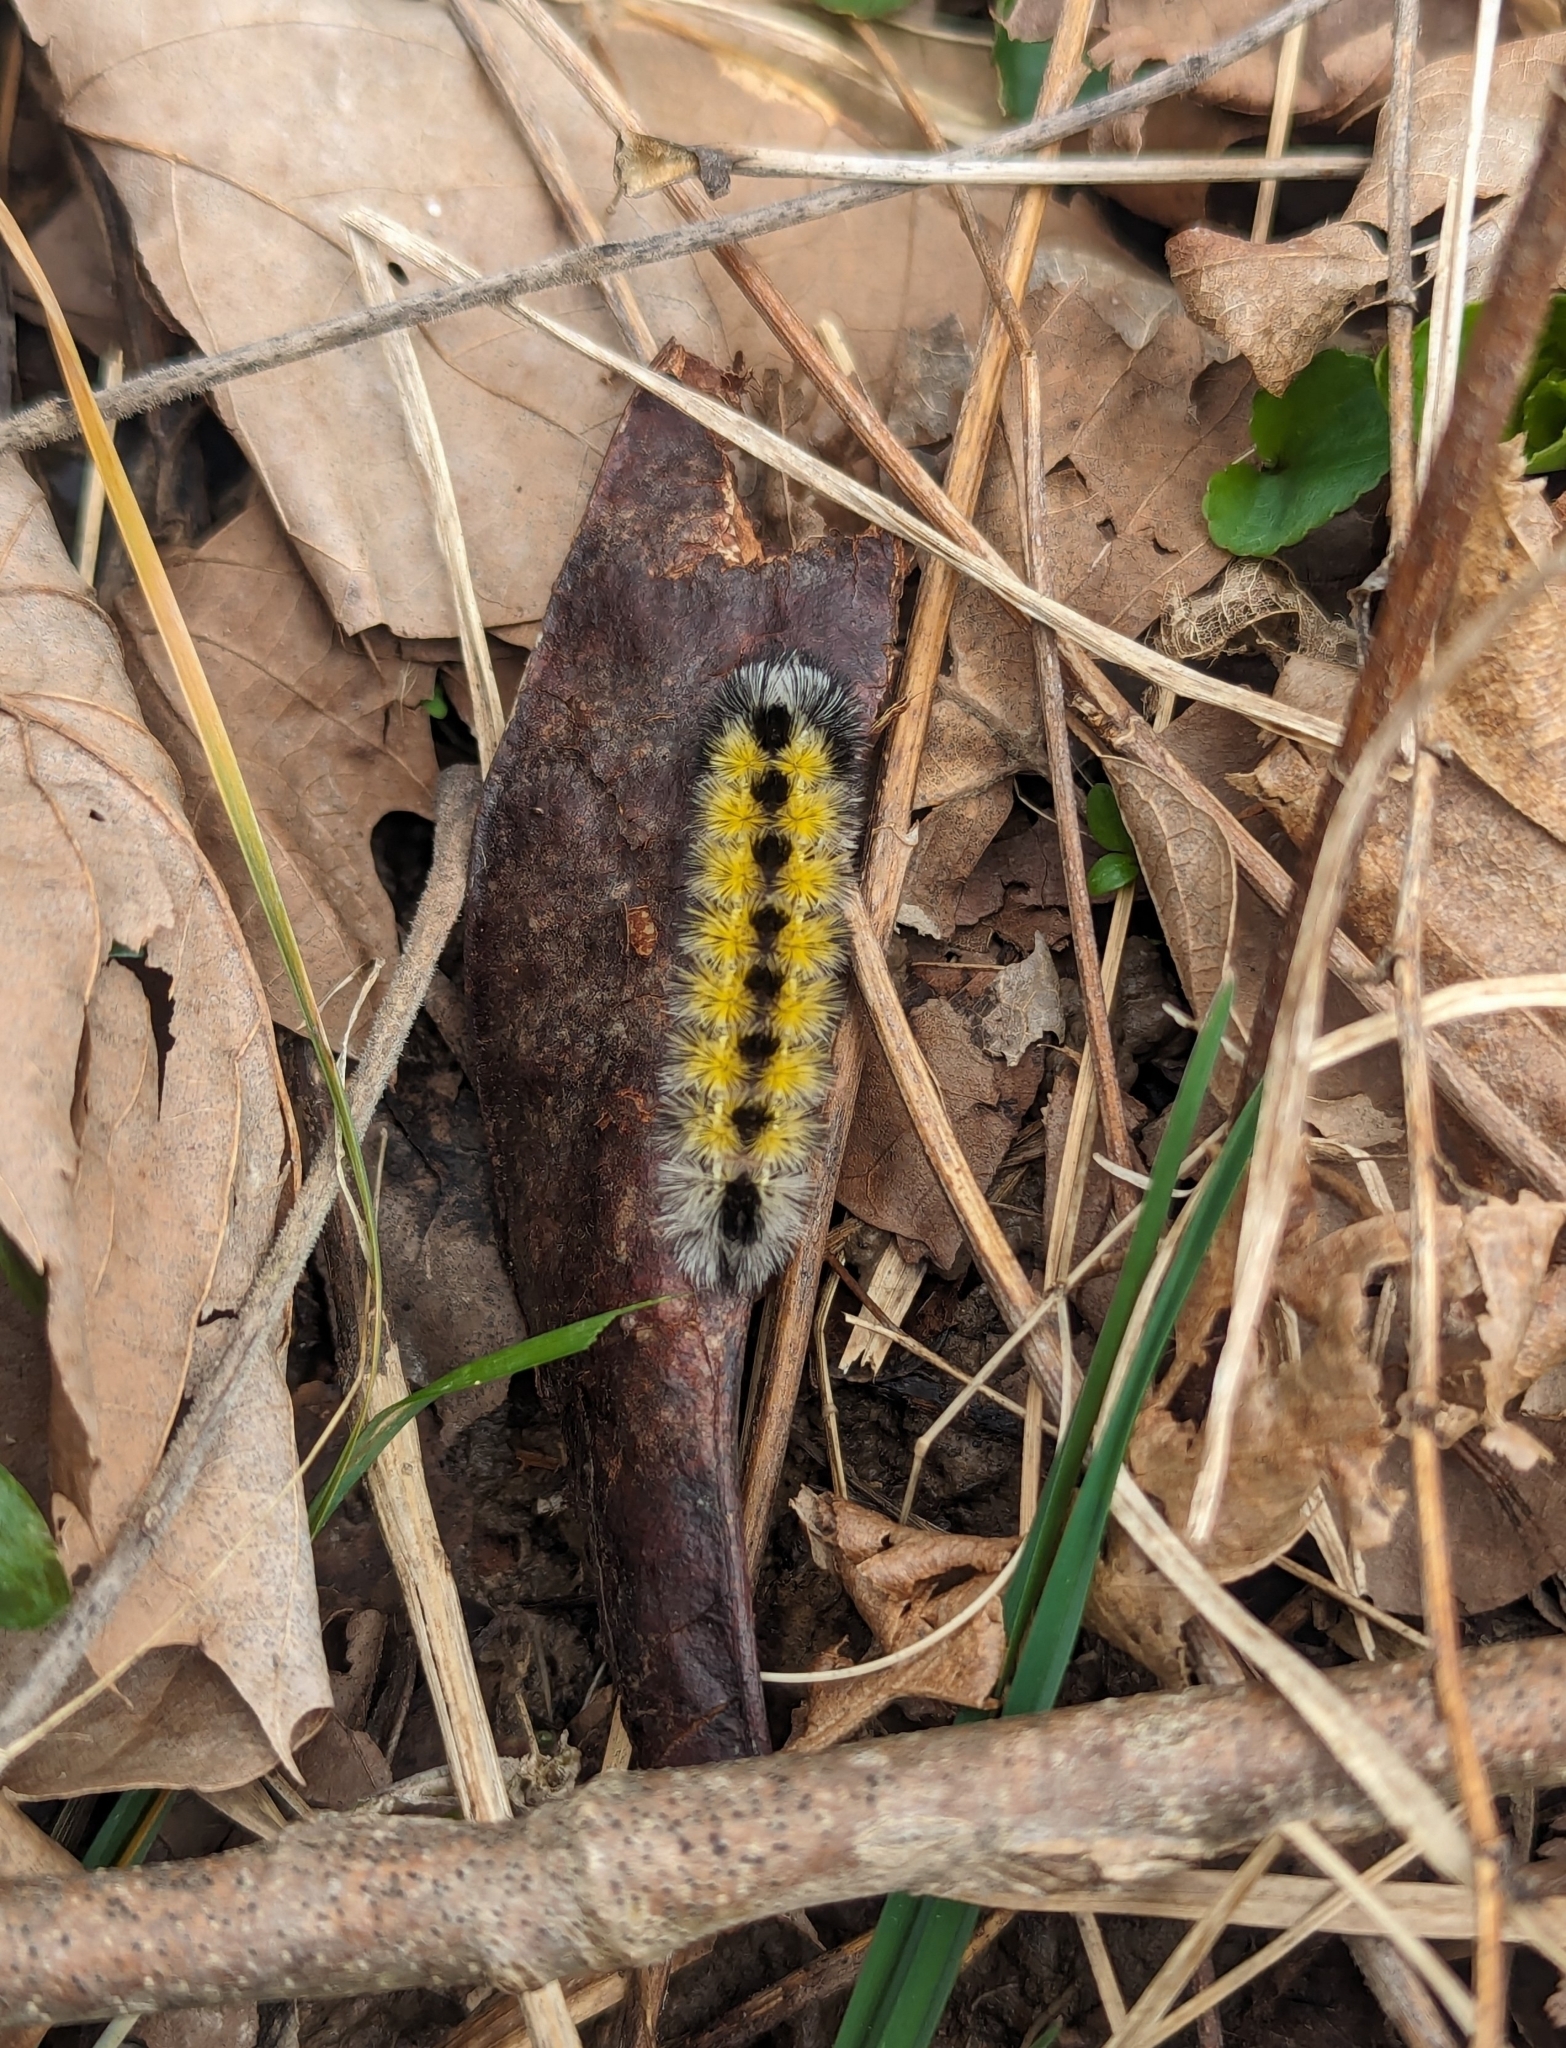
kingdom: Animalia
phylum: Arthropoda
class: Insecta
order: Lepidoptera
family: Erebidae
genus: Ctenucha
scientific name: Ctenucha virginica
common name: Virginia ctenucha moth
